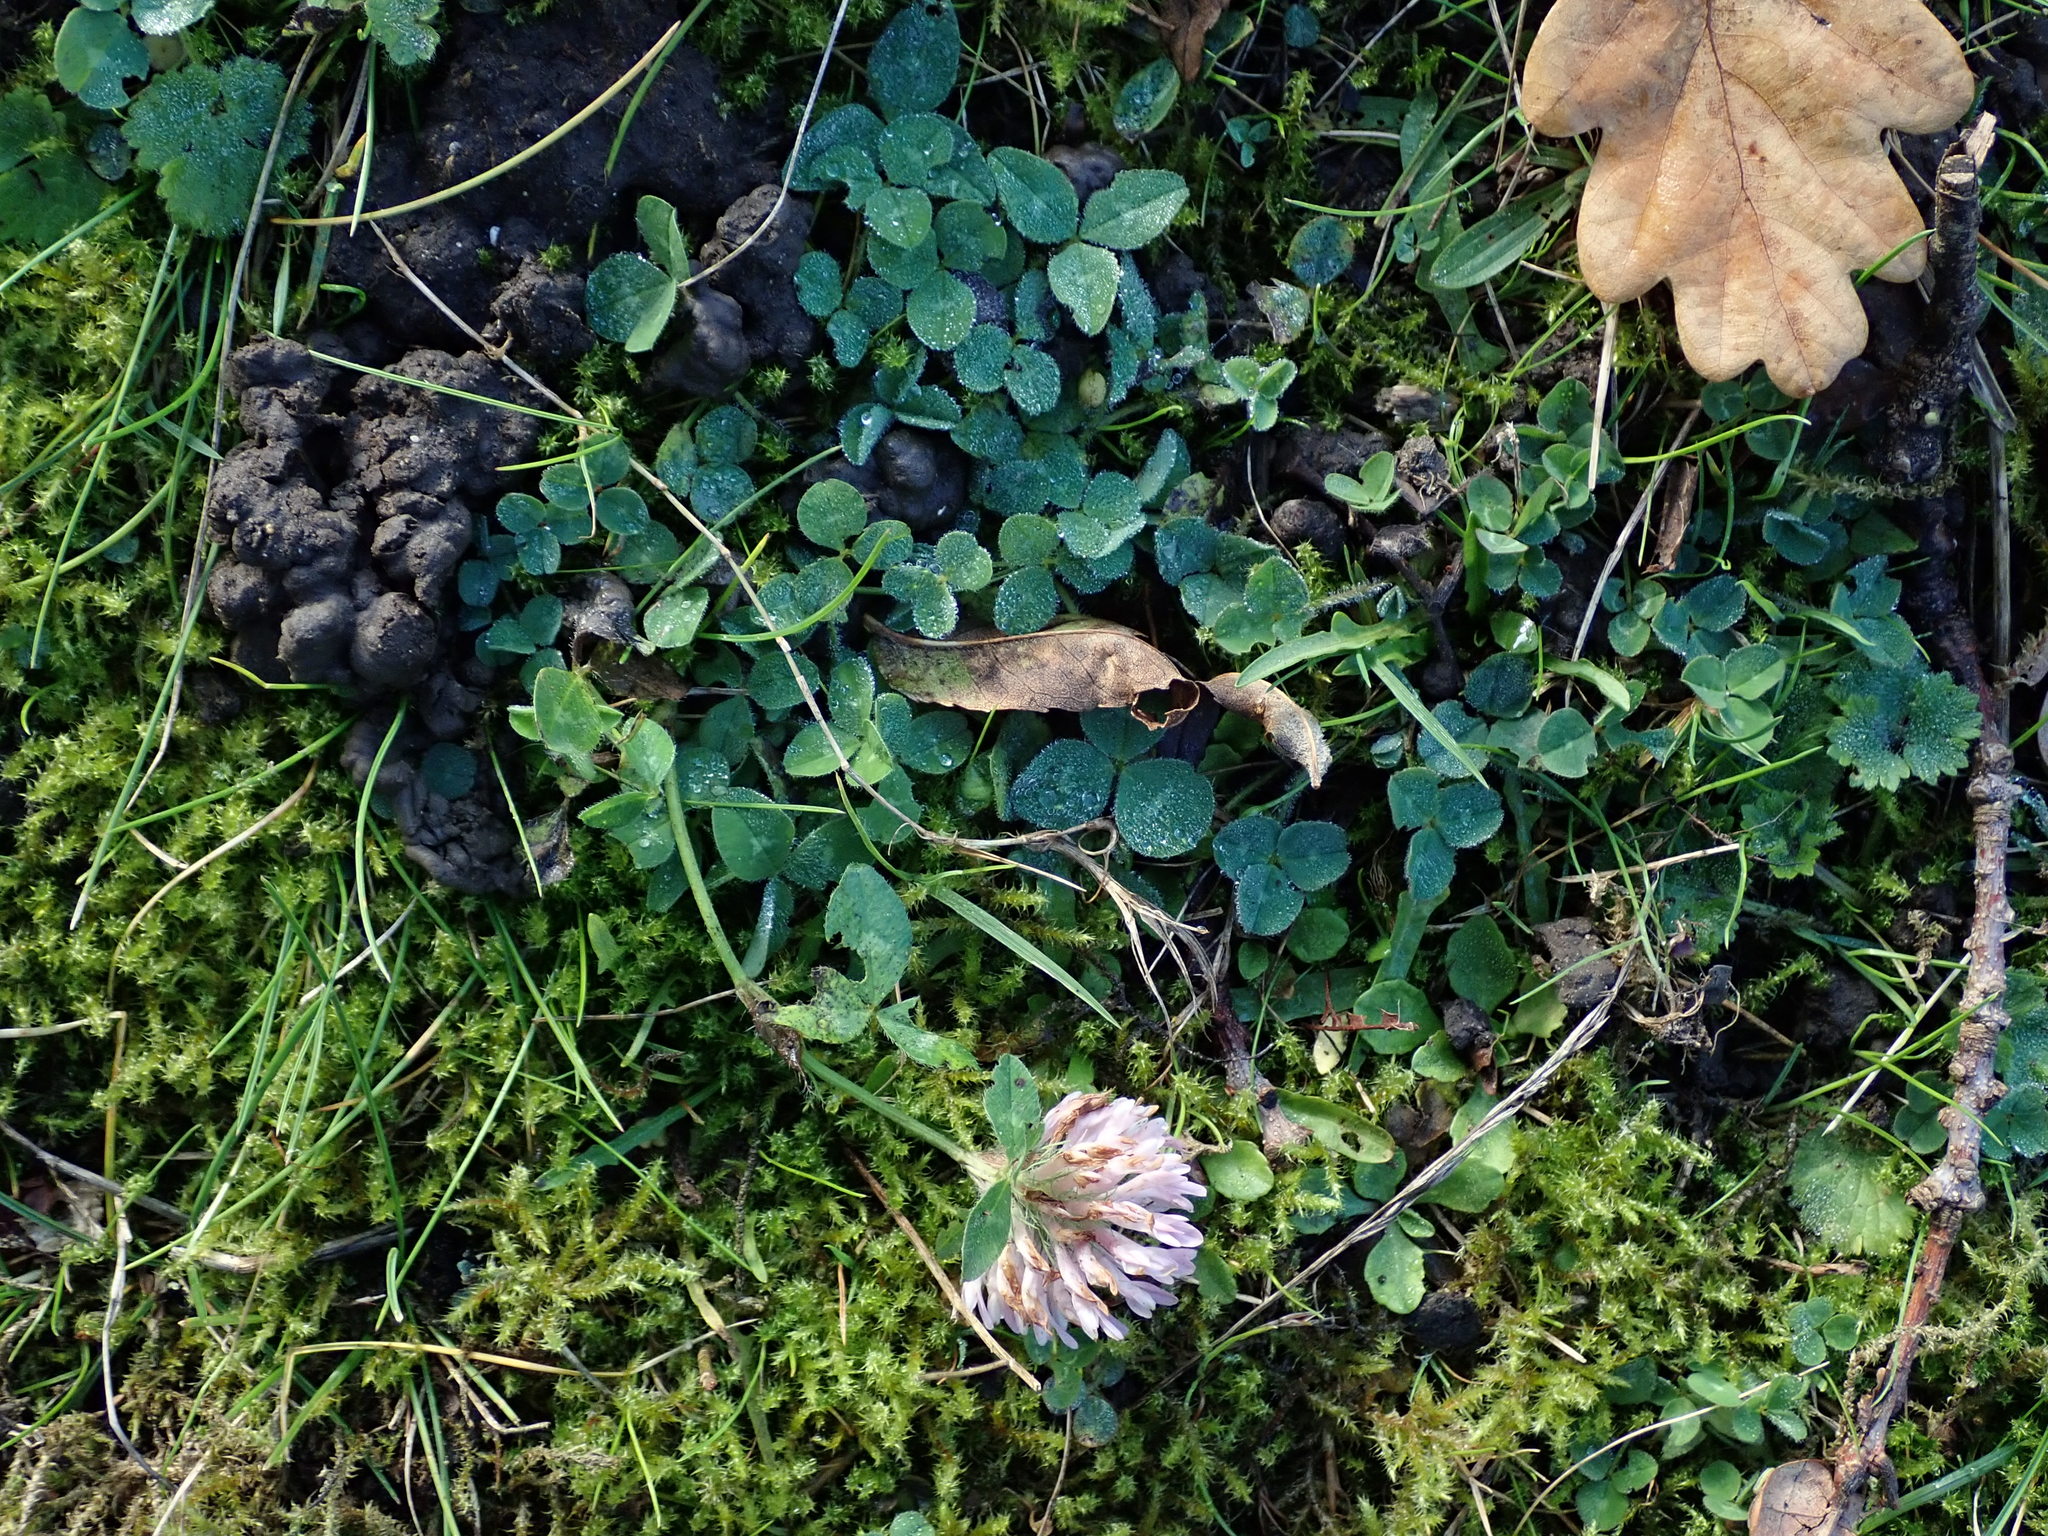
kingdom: Plantae
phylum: Tracheophyta
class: Magnoliopsida
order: Fabales
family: Fabaceae
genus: Trifolium
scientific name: Trifolium pratense
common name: Red clover
